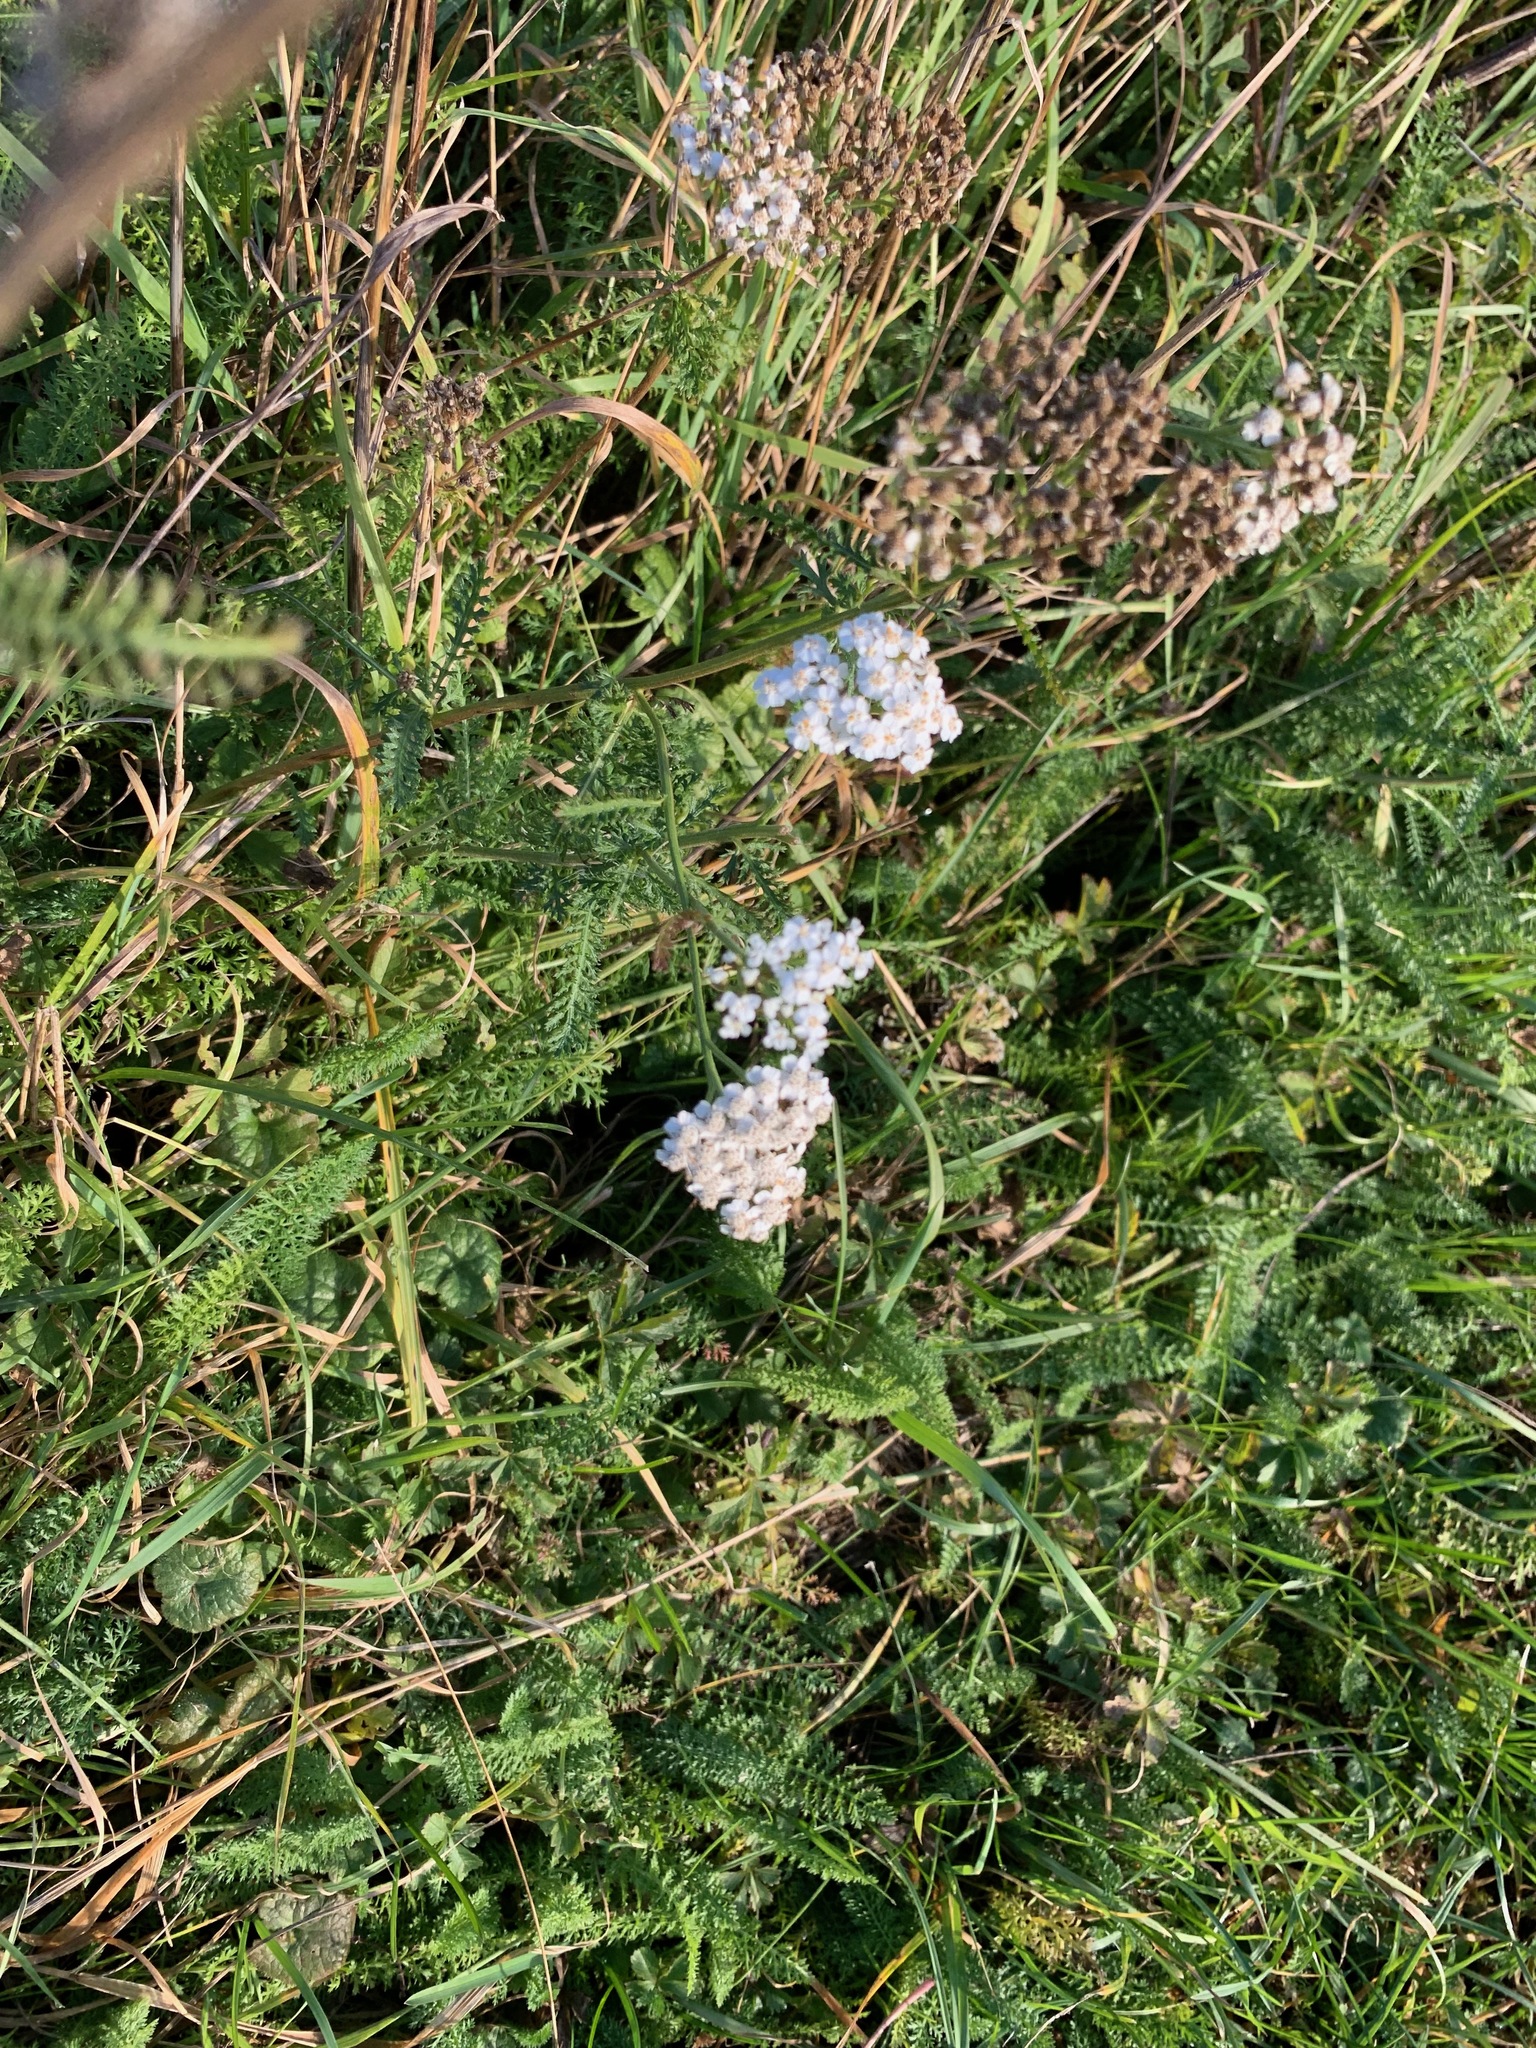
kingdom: Plantae
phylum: Tracheophyta
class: Magnoliopsida
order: Asterales
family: Asteraceae
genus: Achillea
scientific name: Achillea millefolium
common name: Yarrow
